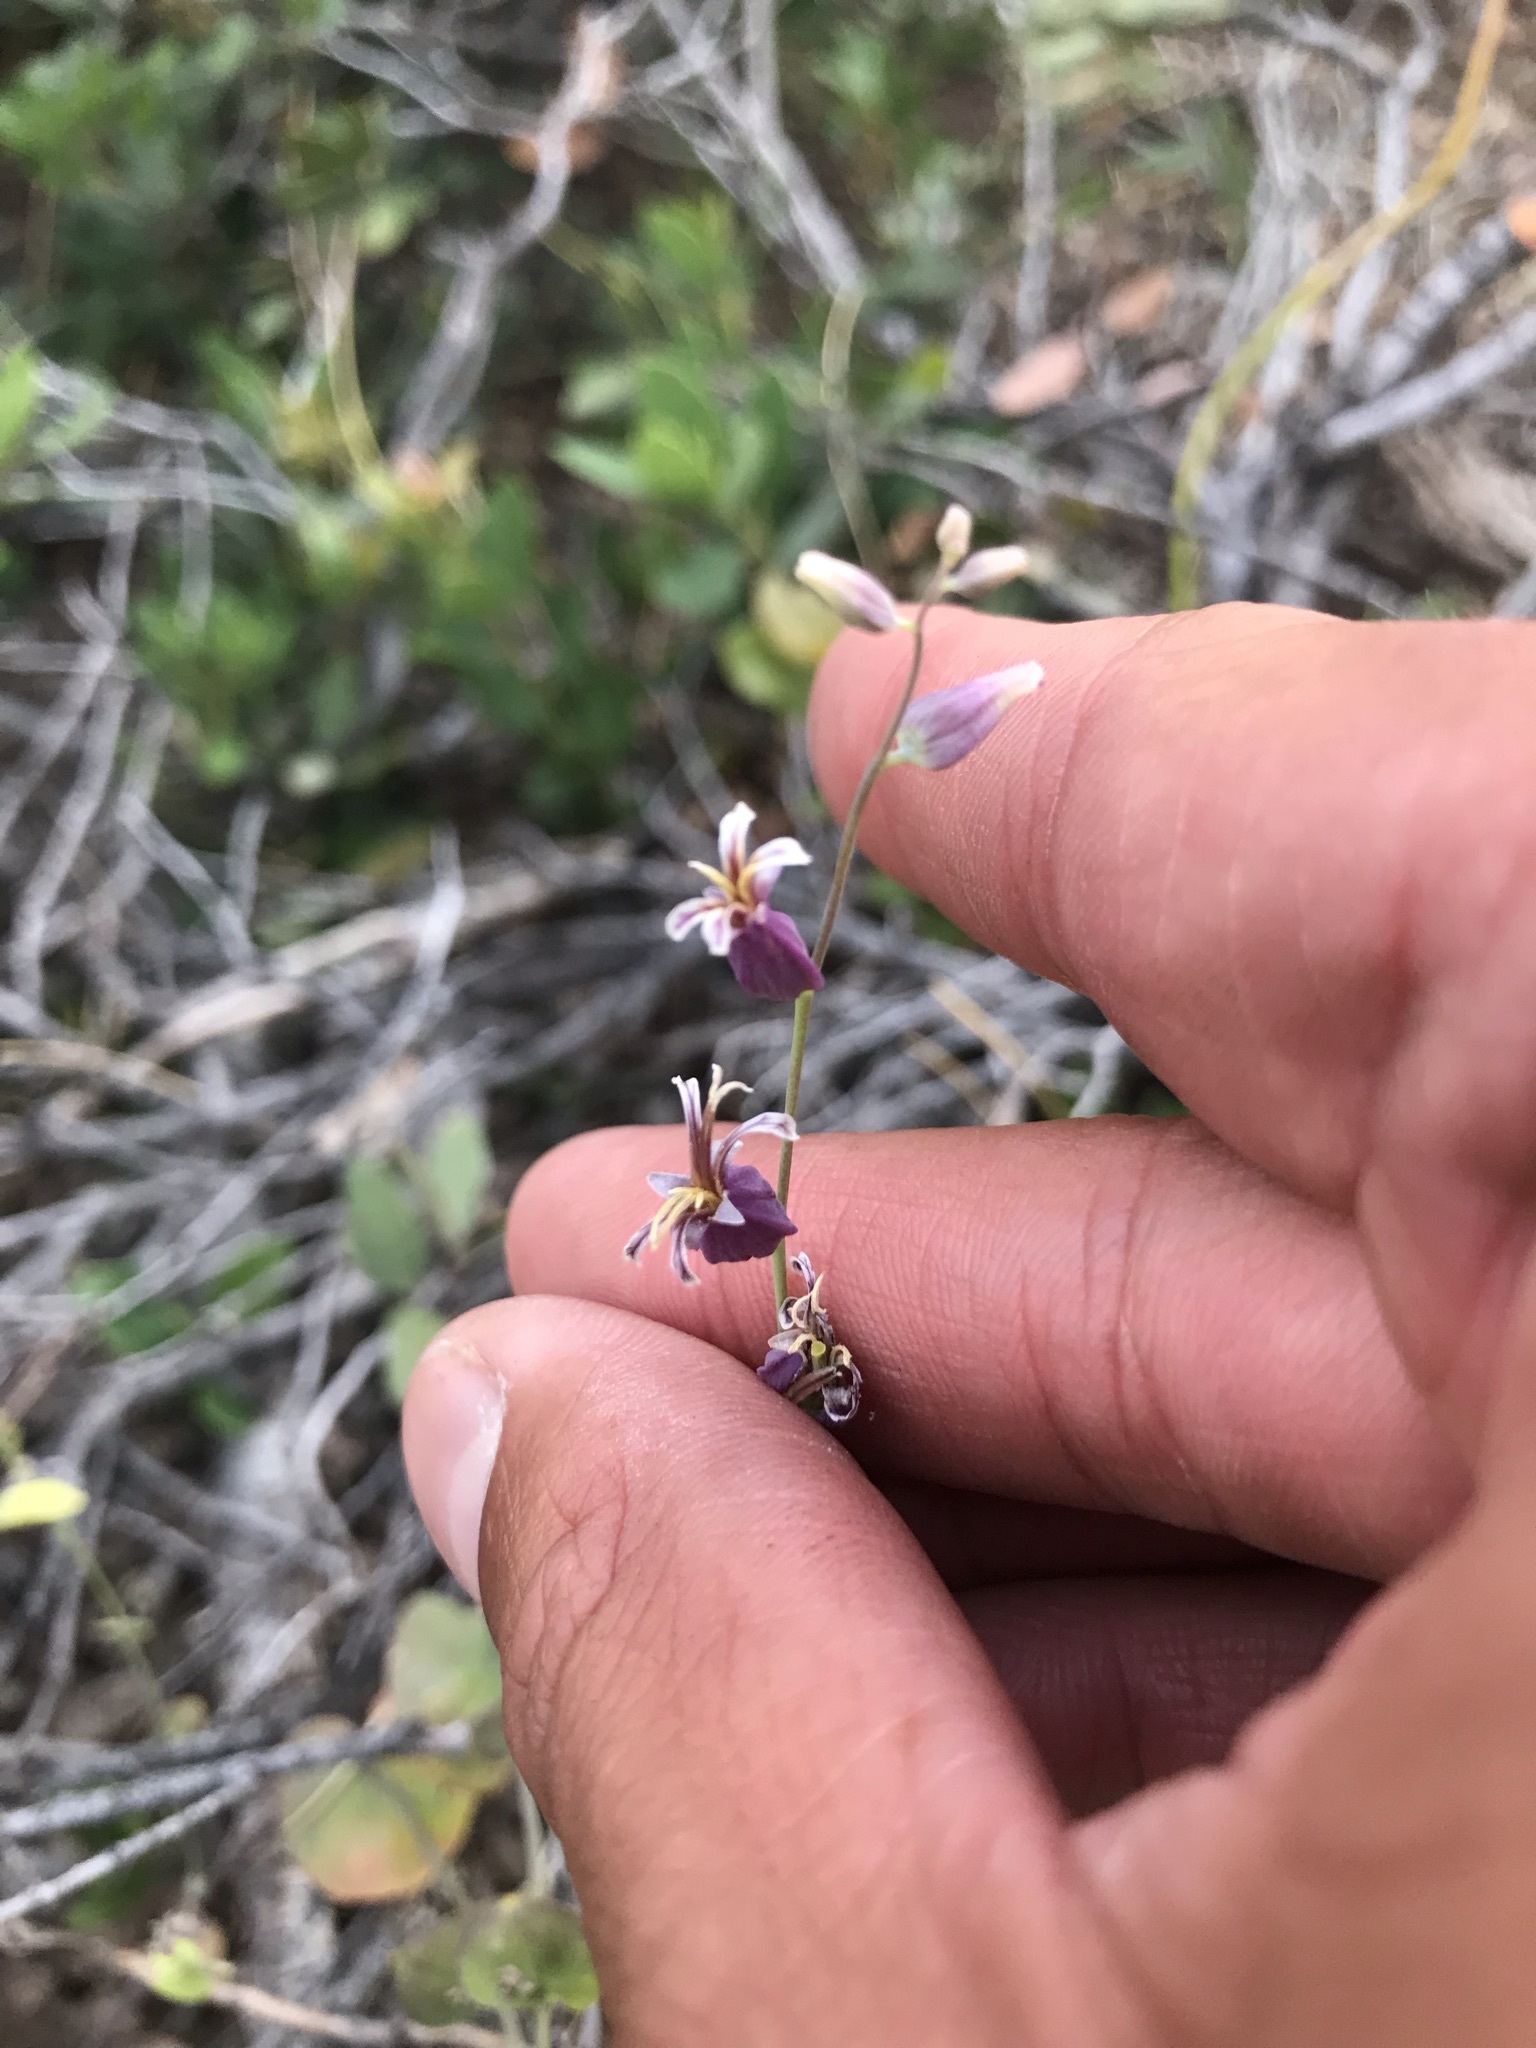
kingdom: Plantae
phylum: Tracheophyta
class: Magnoliopsida
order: Brassicales
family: Brassicaceae
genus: Streptanthus
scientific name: Streptanthus tortuosus
